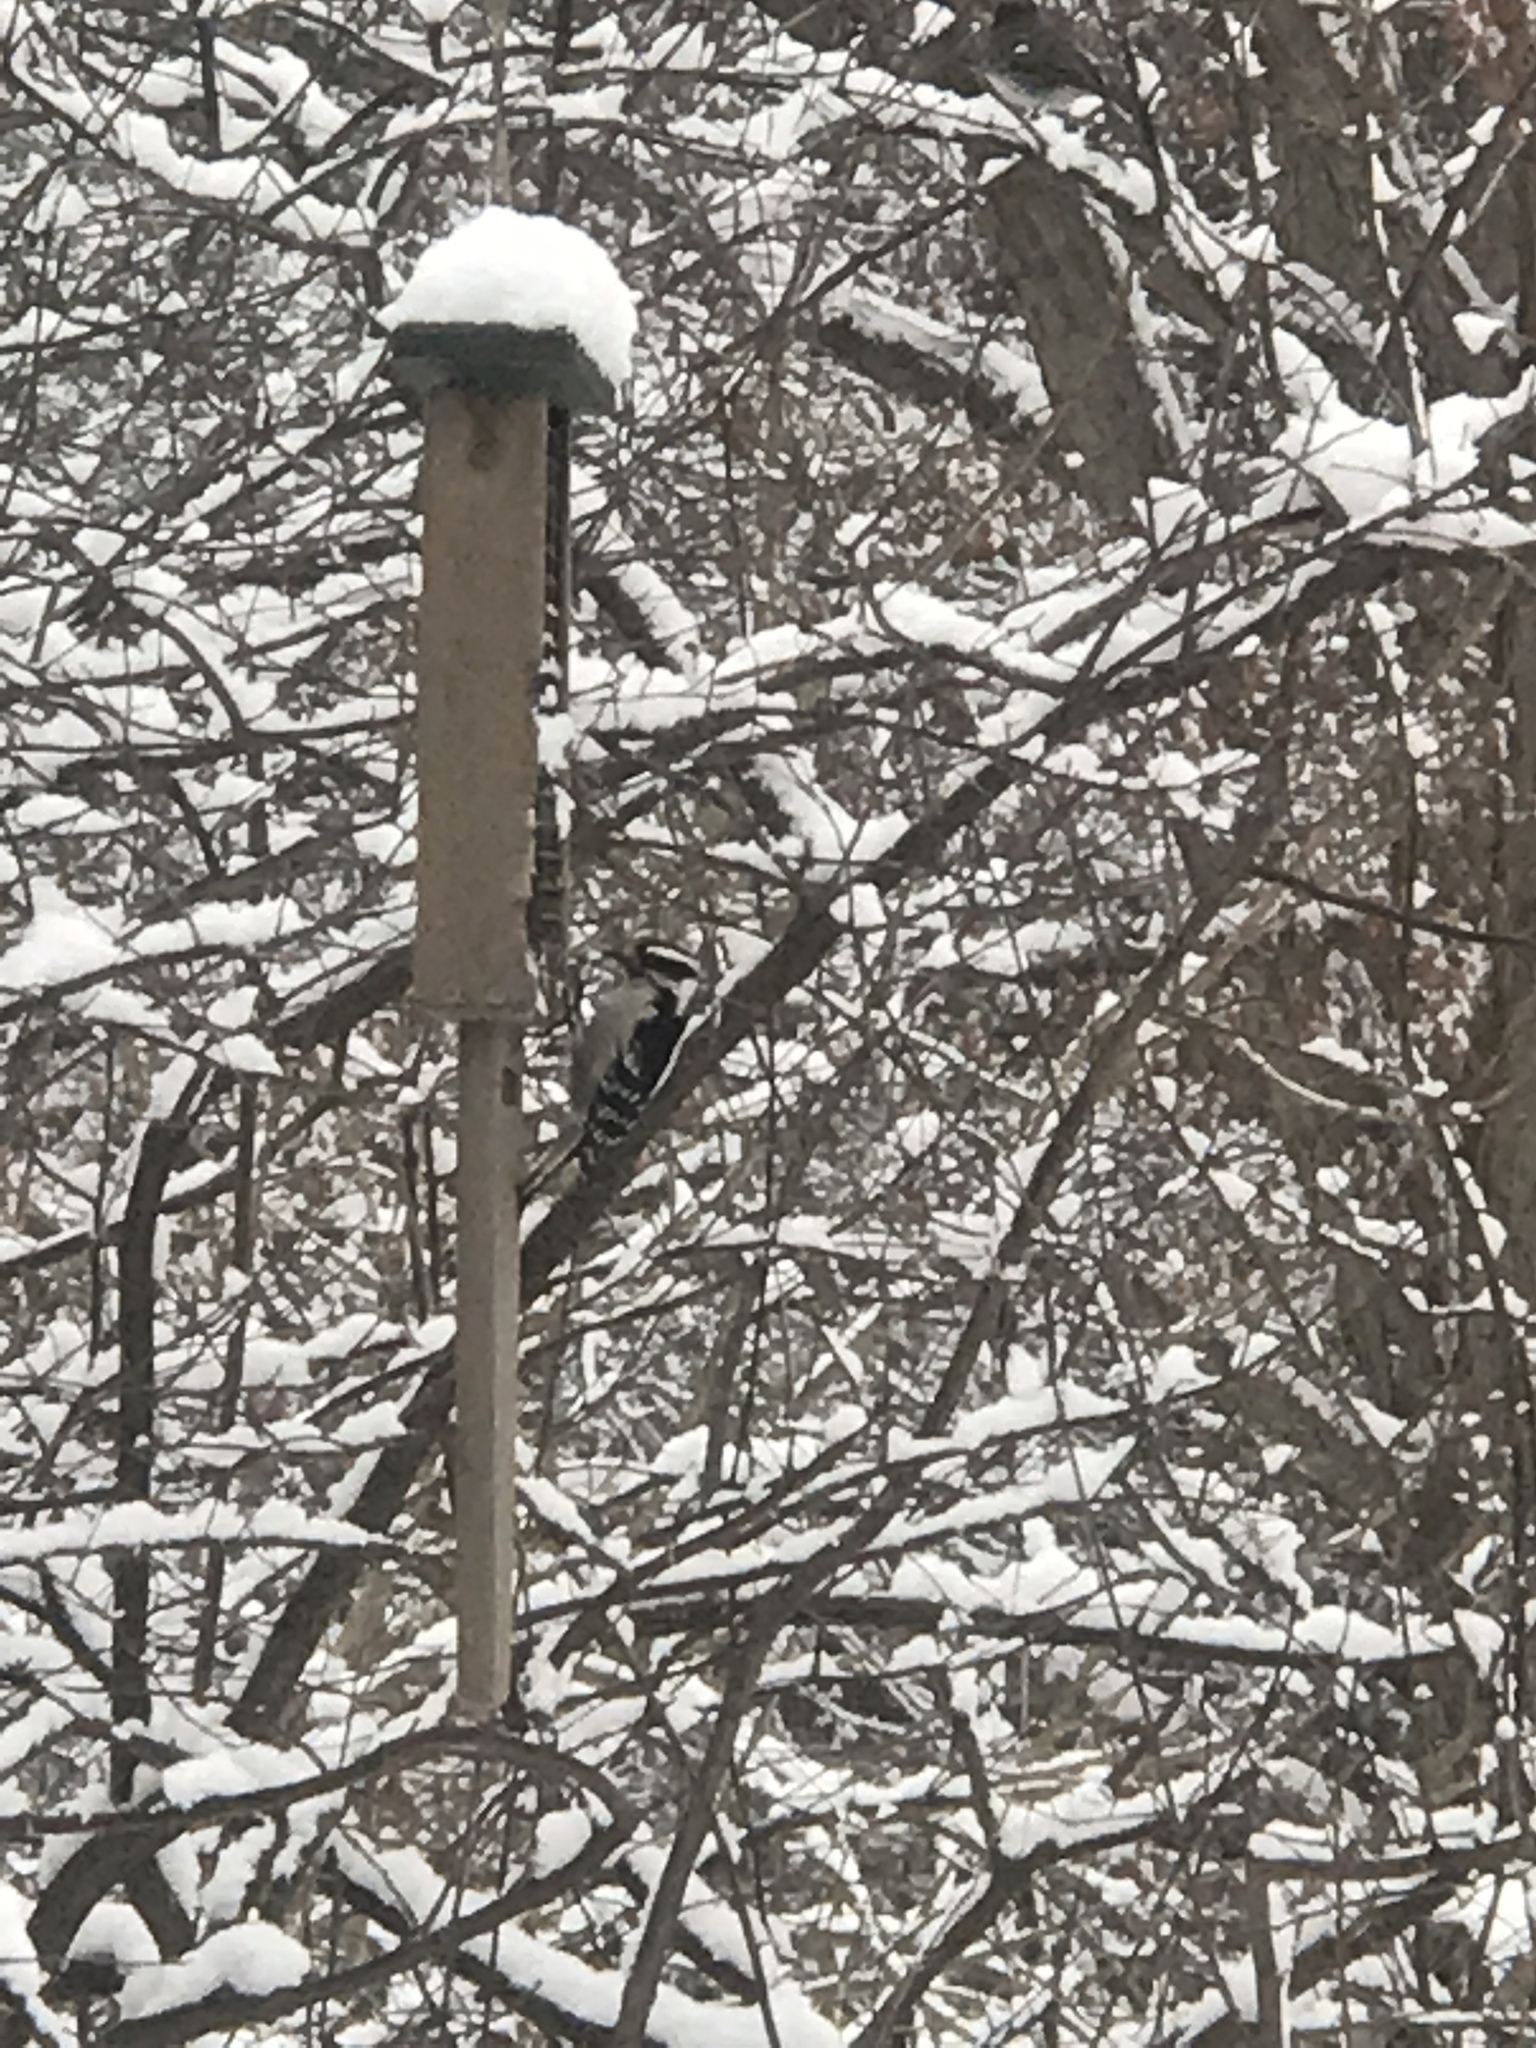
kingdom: Animalia
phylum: Chordata
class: Aves
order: Piciformes
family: Picidae
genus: Dryobates
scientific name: Dryobates pubescens
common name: Downy woodpecker
